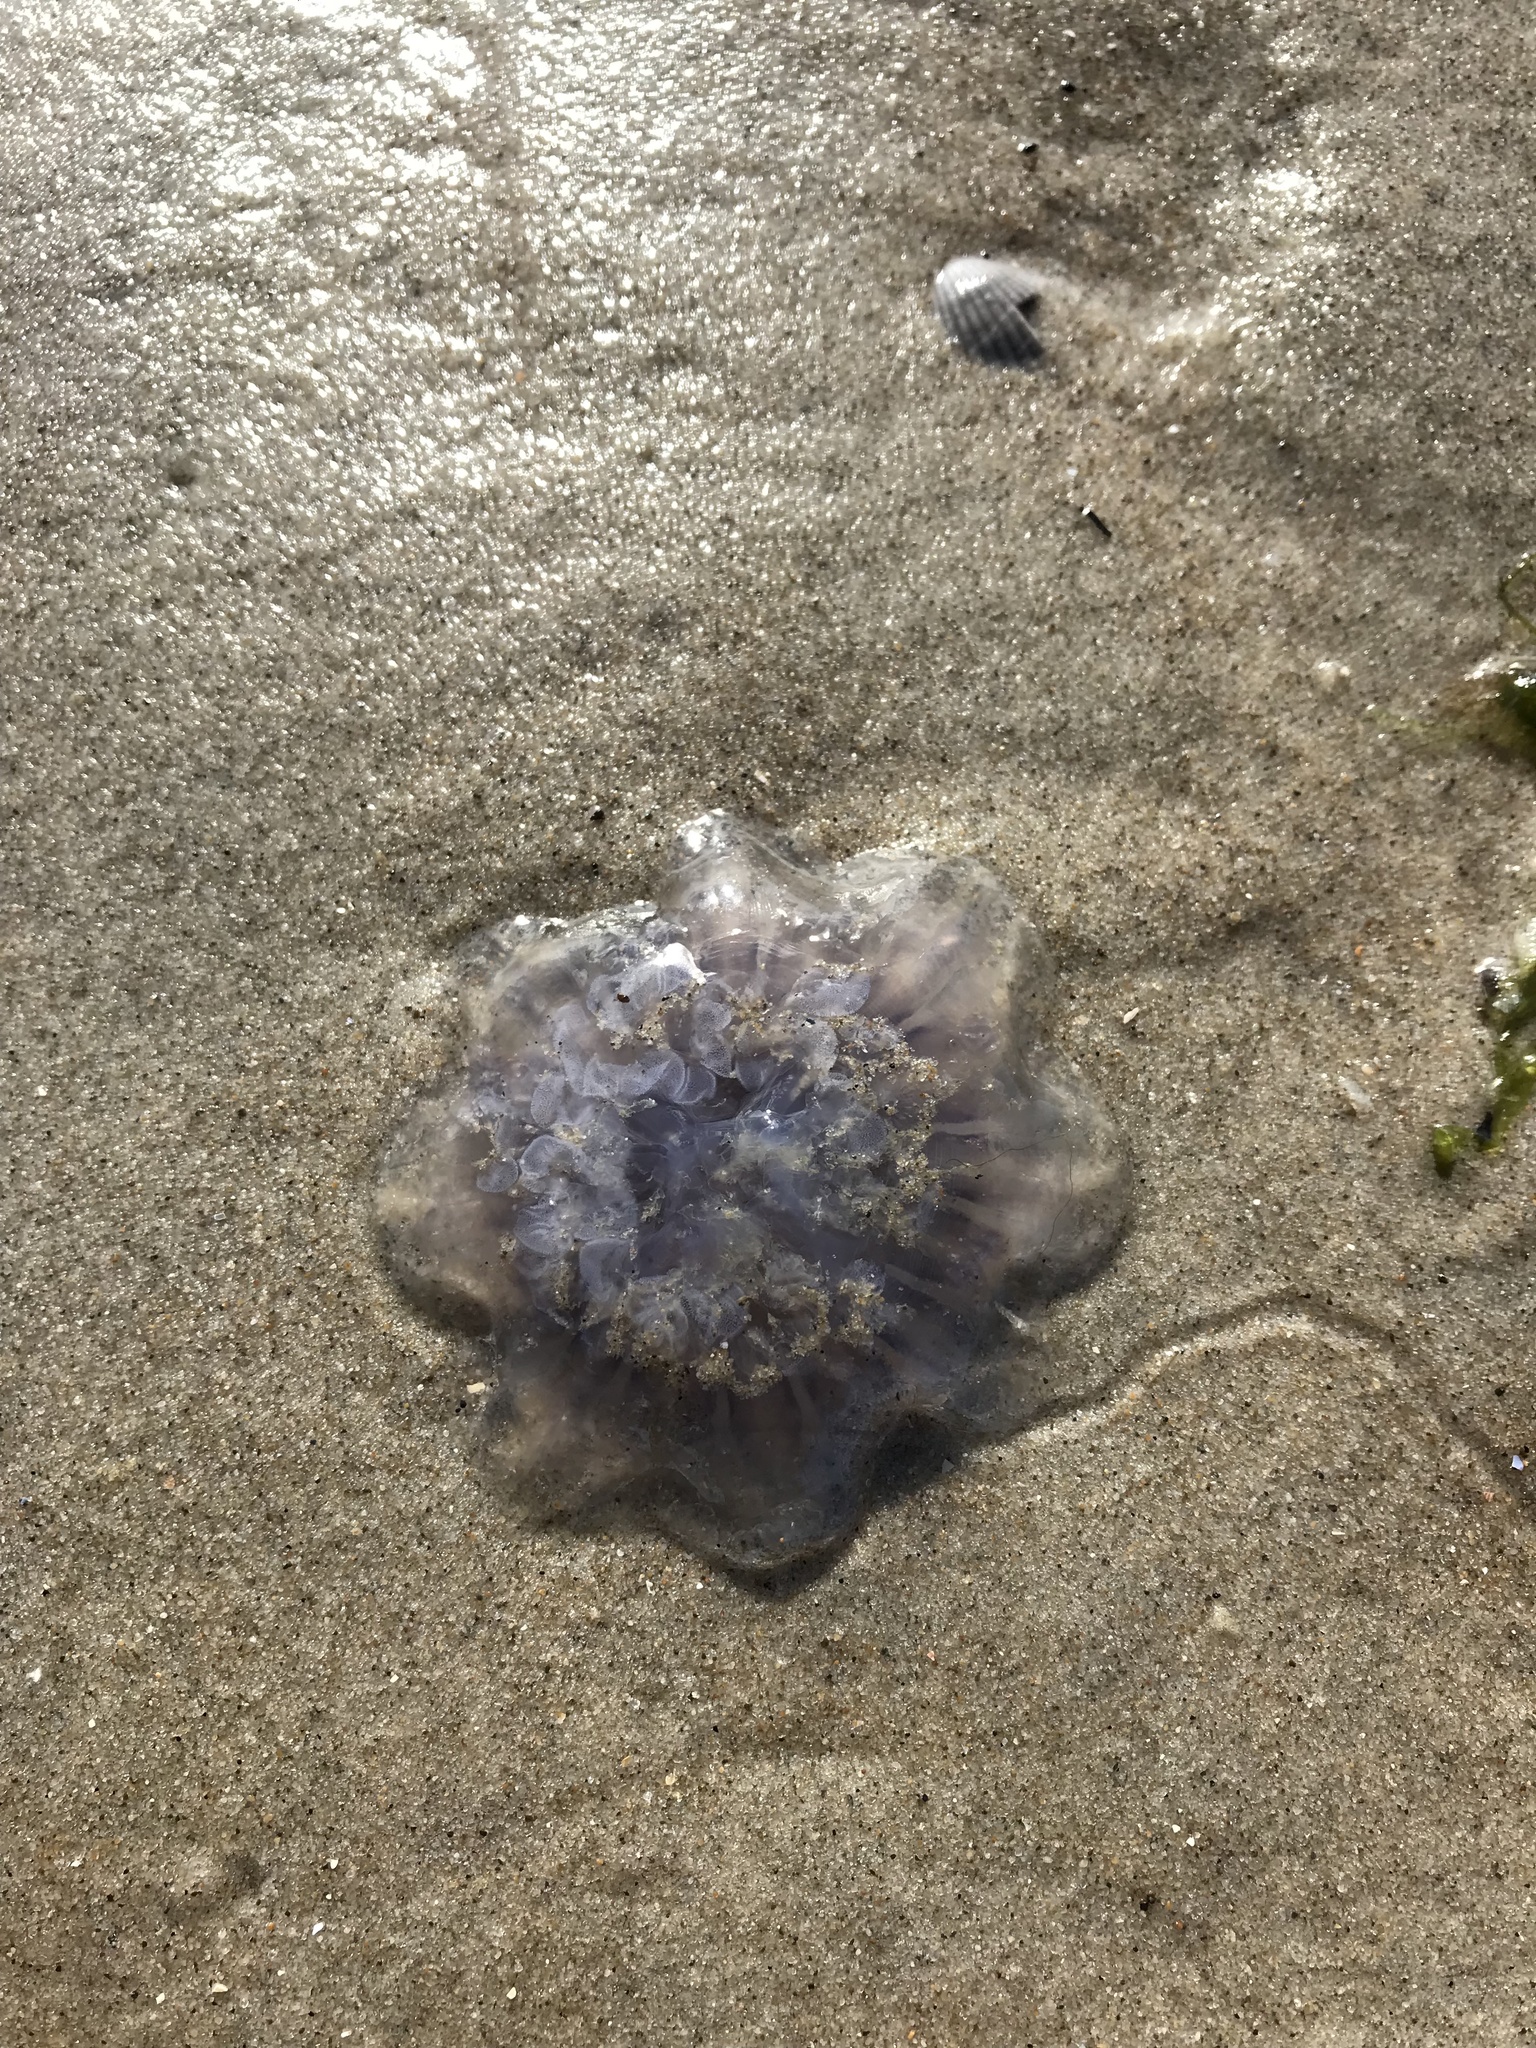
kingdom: Animalia
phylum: Cnidaria
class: Scyphozoa
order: Semaeostomeae
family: Cyaneidae
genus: Cyanea
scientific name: Cyanea lamarckii
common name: Blue jellyfish
